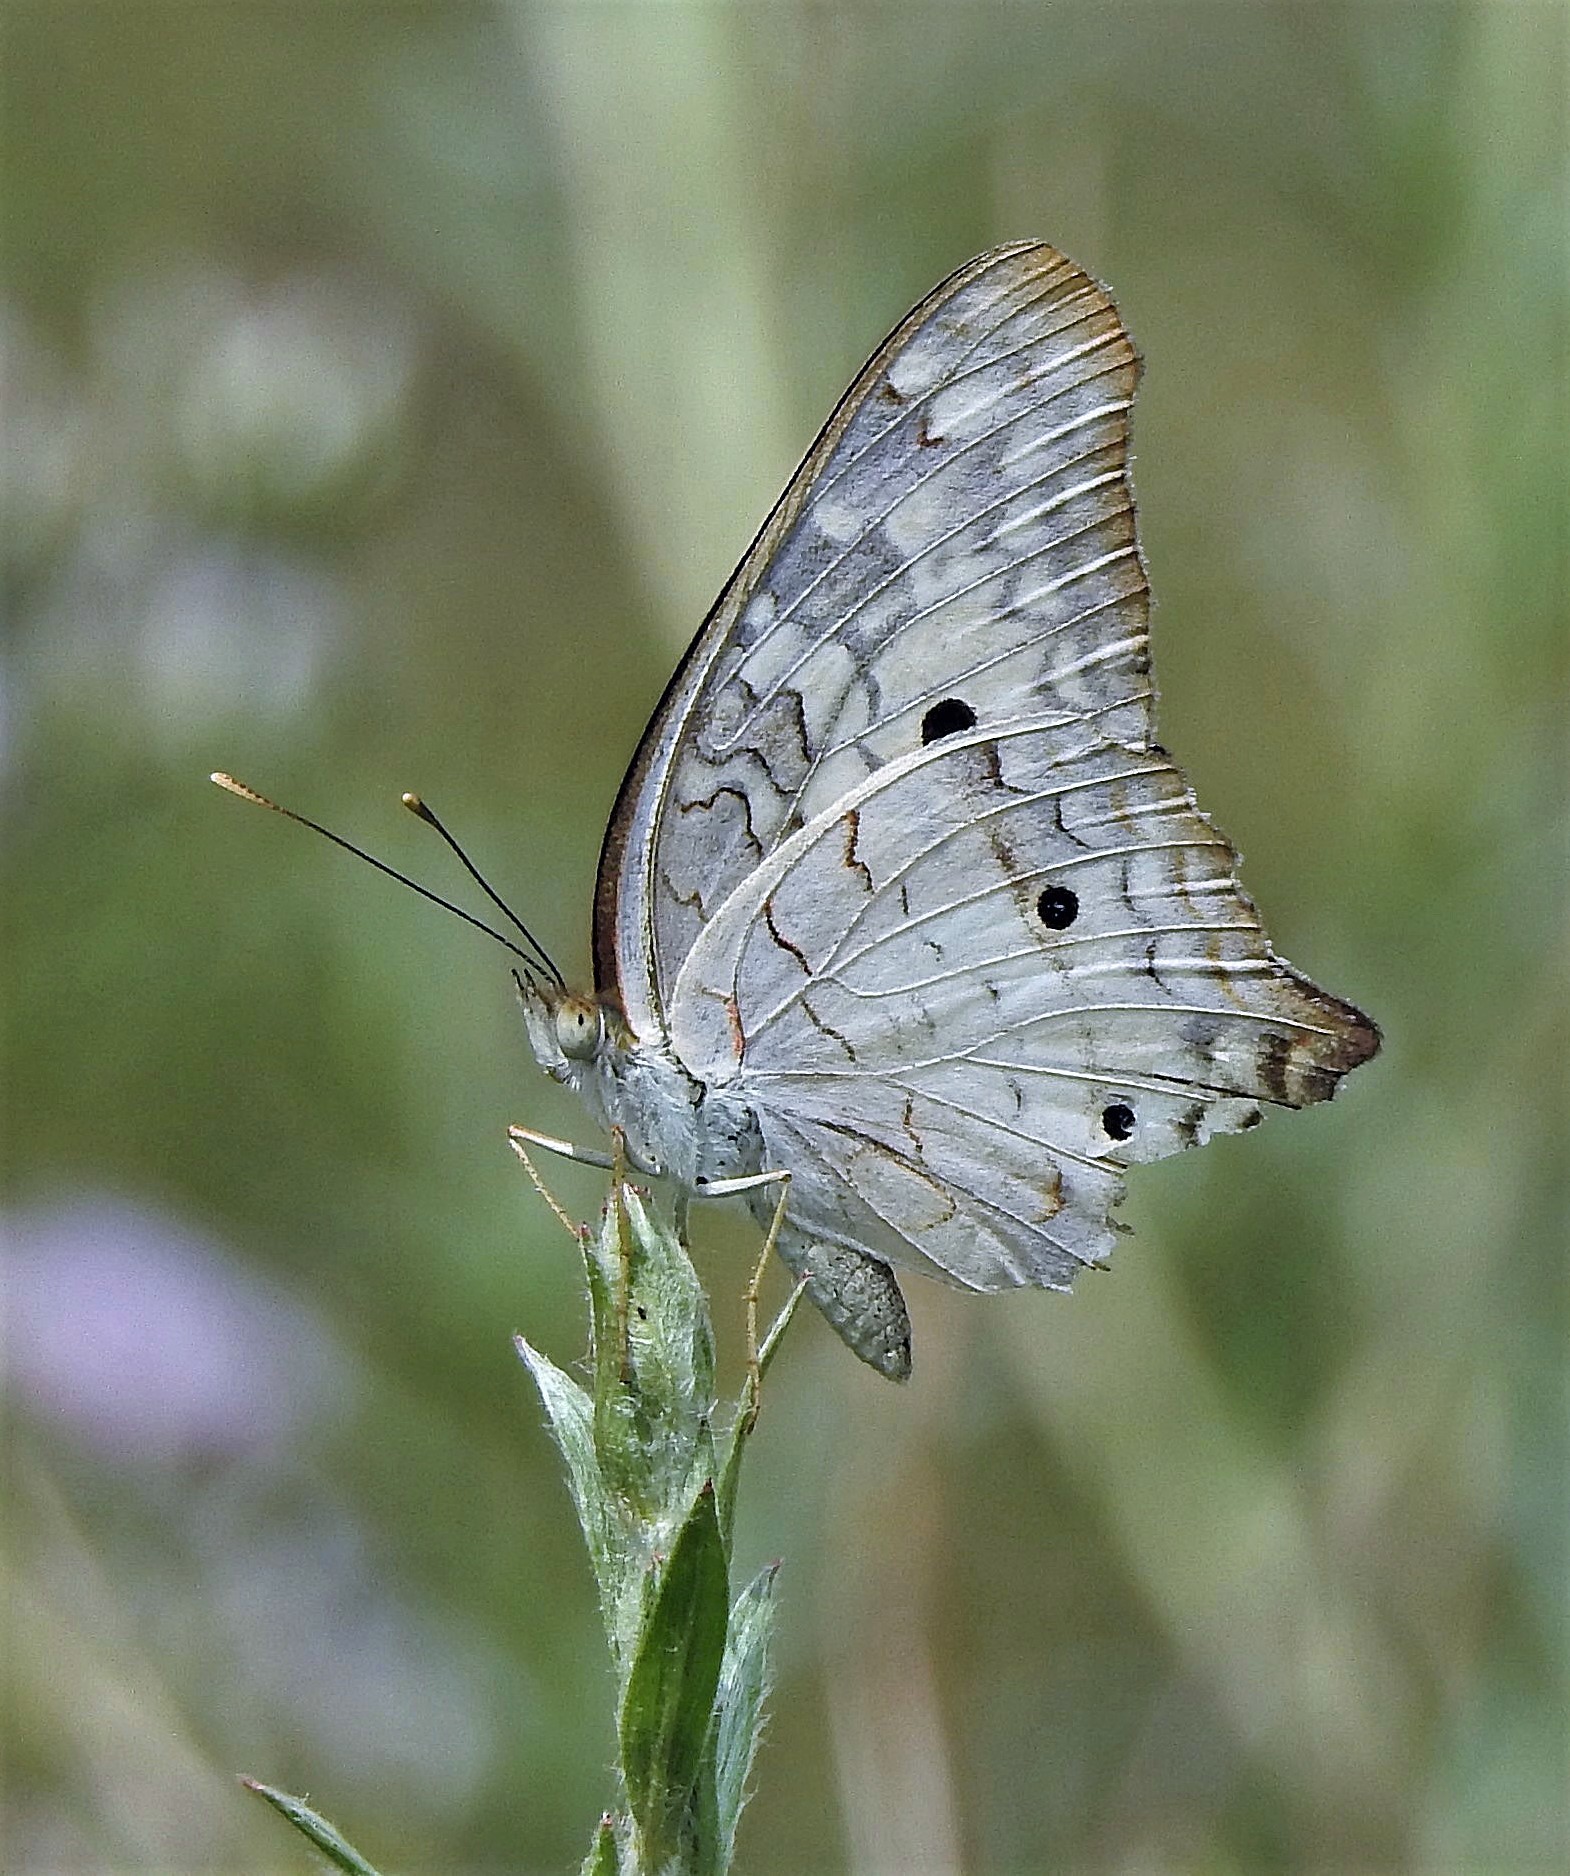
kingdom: Animalia
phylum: Arthropoda
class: Insecta
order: Lepidoptera
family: Nymphalidae
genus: Anartia
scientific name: Anartia jatrophae
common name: White peacock
